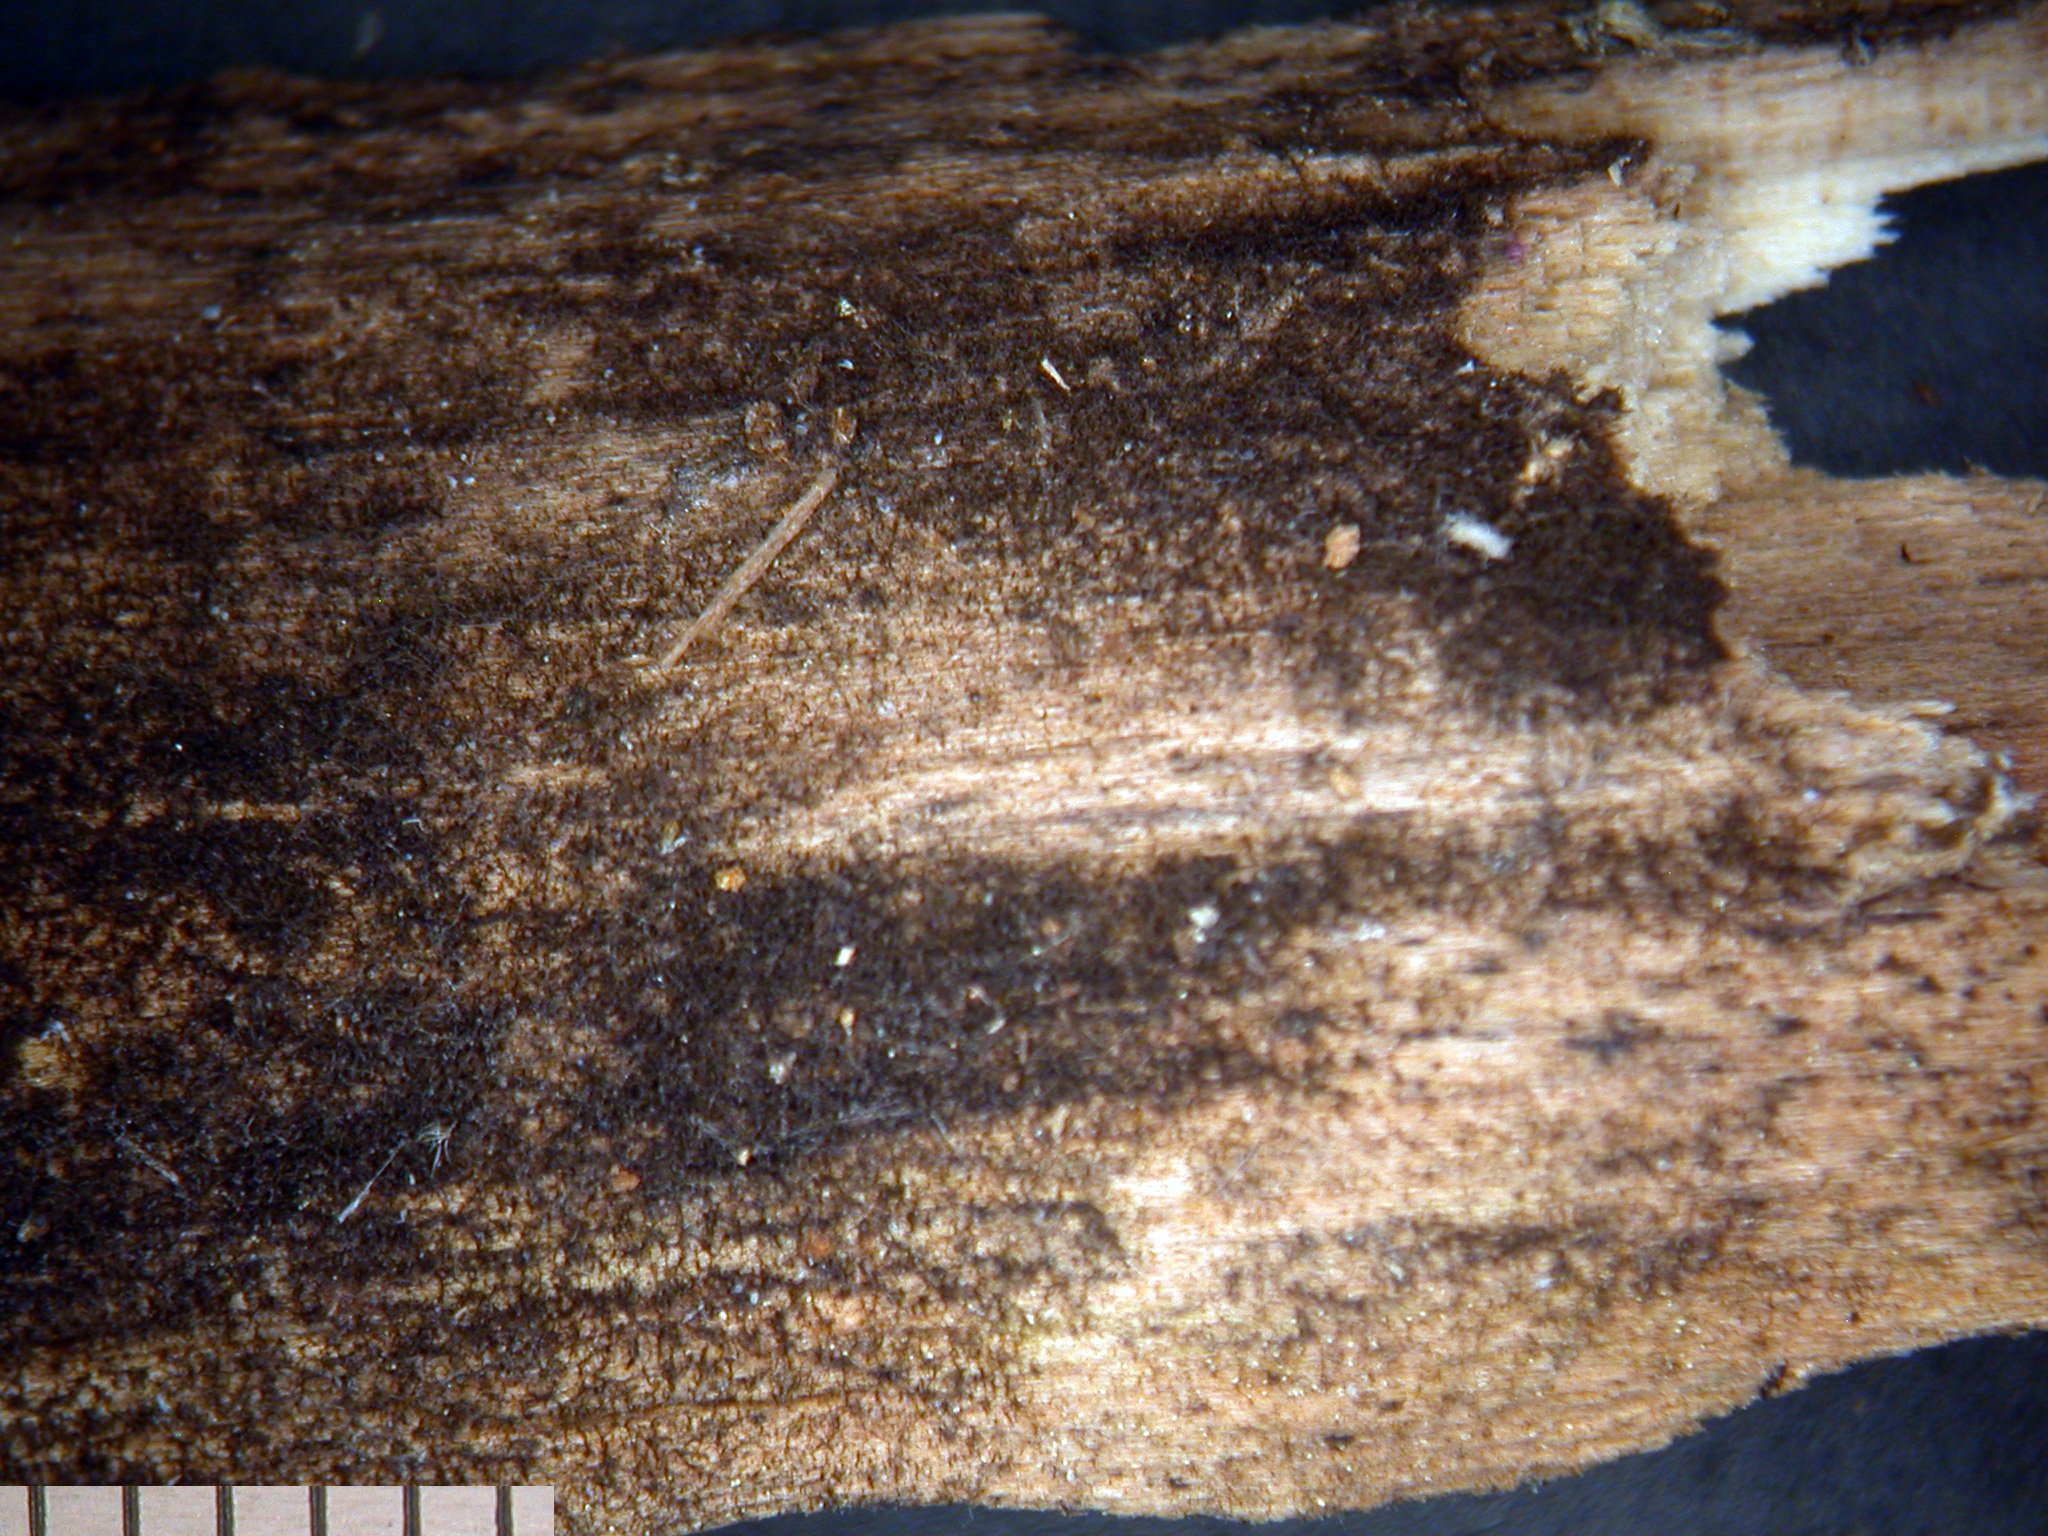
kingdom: Fungi
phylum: Ascomycota
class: Leotiomycetes
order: Helotiales
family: Helotiaceae
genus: Strossmayeria
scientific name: Strossmayeria bakeriana
